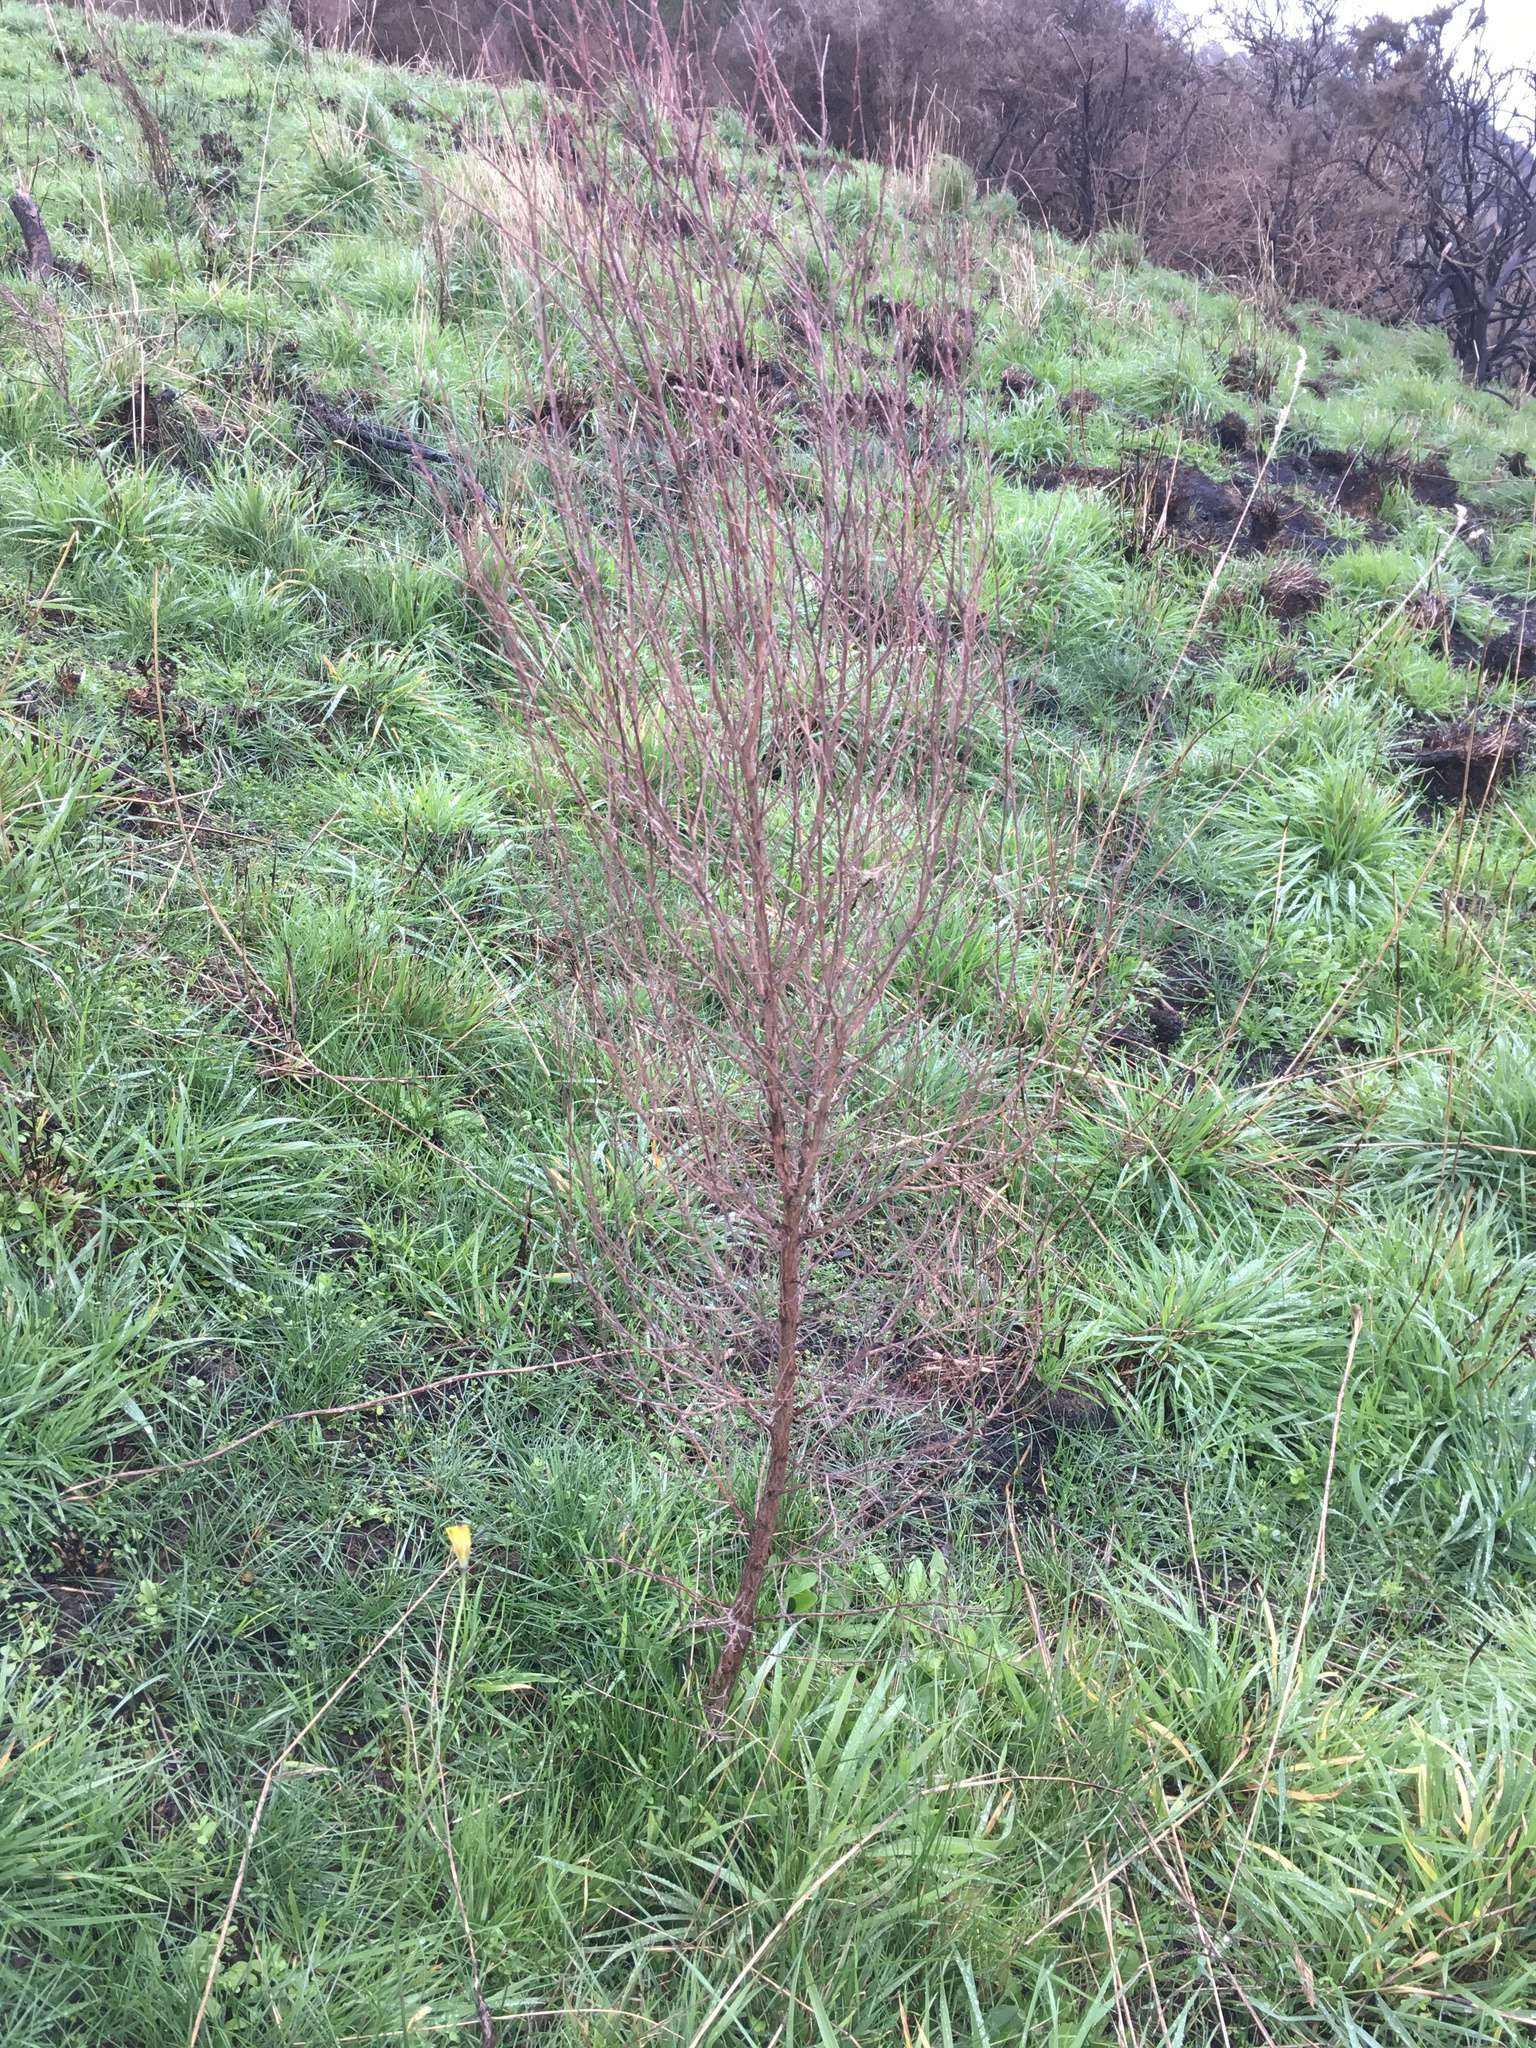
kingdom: Plantae
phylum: Tracheophyta
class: Magnoliopsida
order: Myrtales
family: Myrtaceae
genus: Kunzea
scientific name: Kunzea robusta
